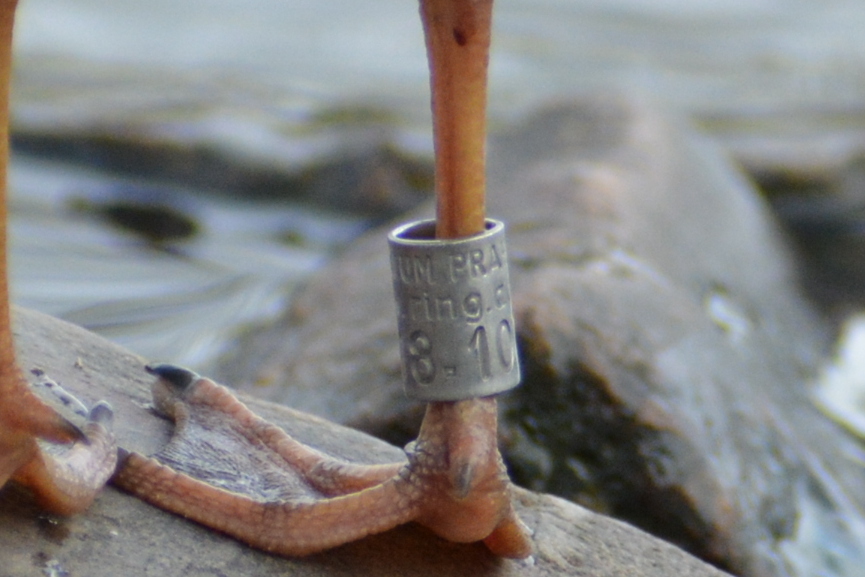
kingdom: Animalia
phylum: Chordata
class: Aves
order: Charadriiformes
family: Laridae
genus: Chroicocephalus
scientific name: Chroicocephalus ridibundus
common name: Black-headed gull
